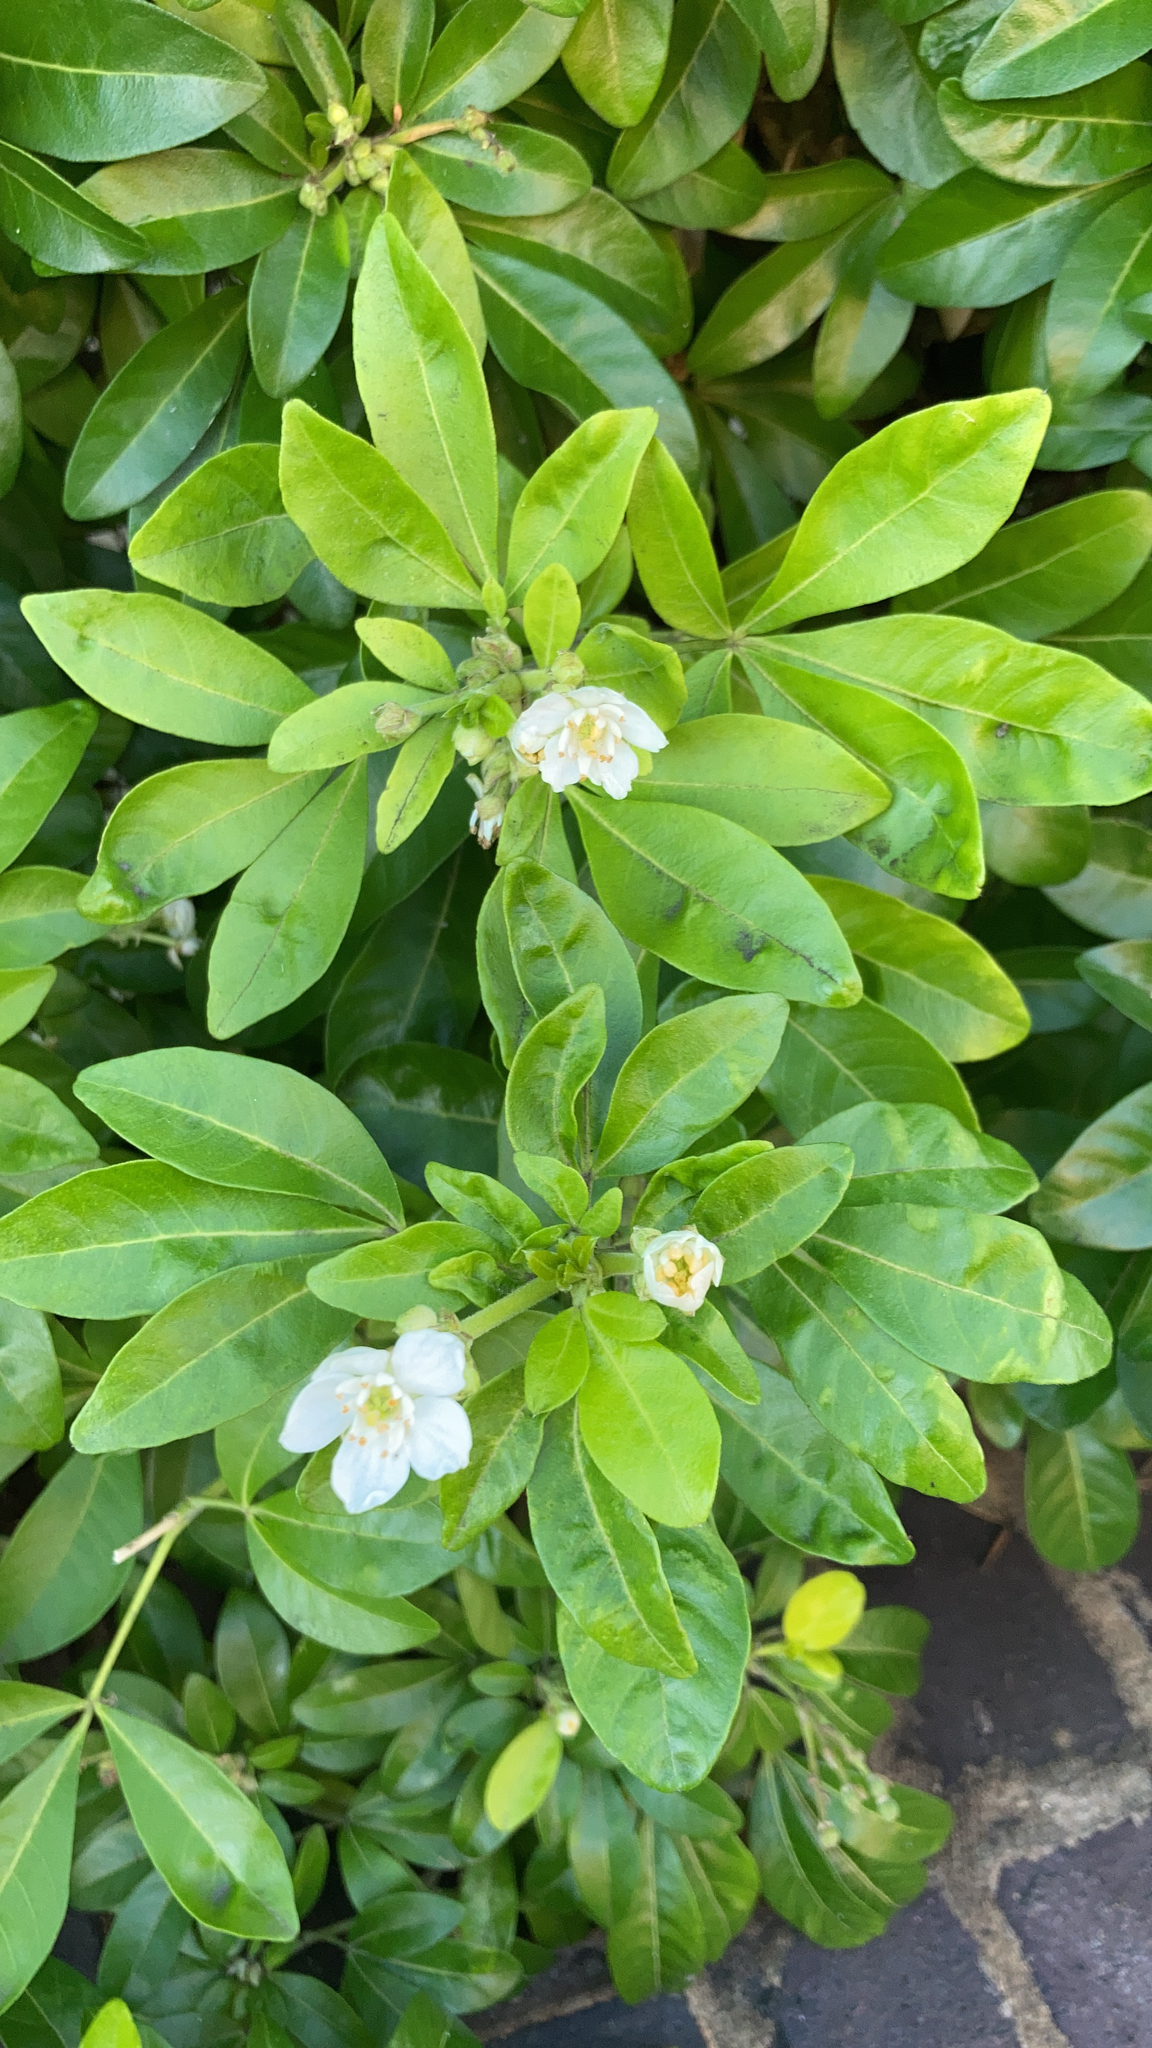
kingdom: Plantae
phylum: Tracheophyta
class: Magnoliopsida
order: Sapindales
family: Rutaceae
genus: Choisya
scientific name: Choisya ternata
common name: Mexican orange
